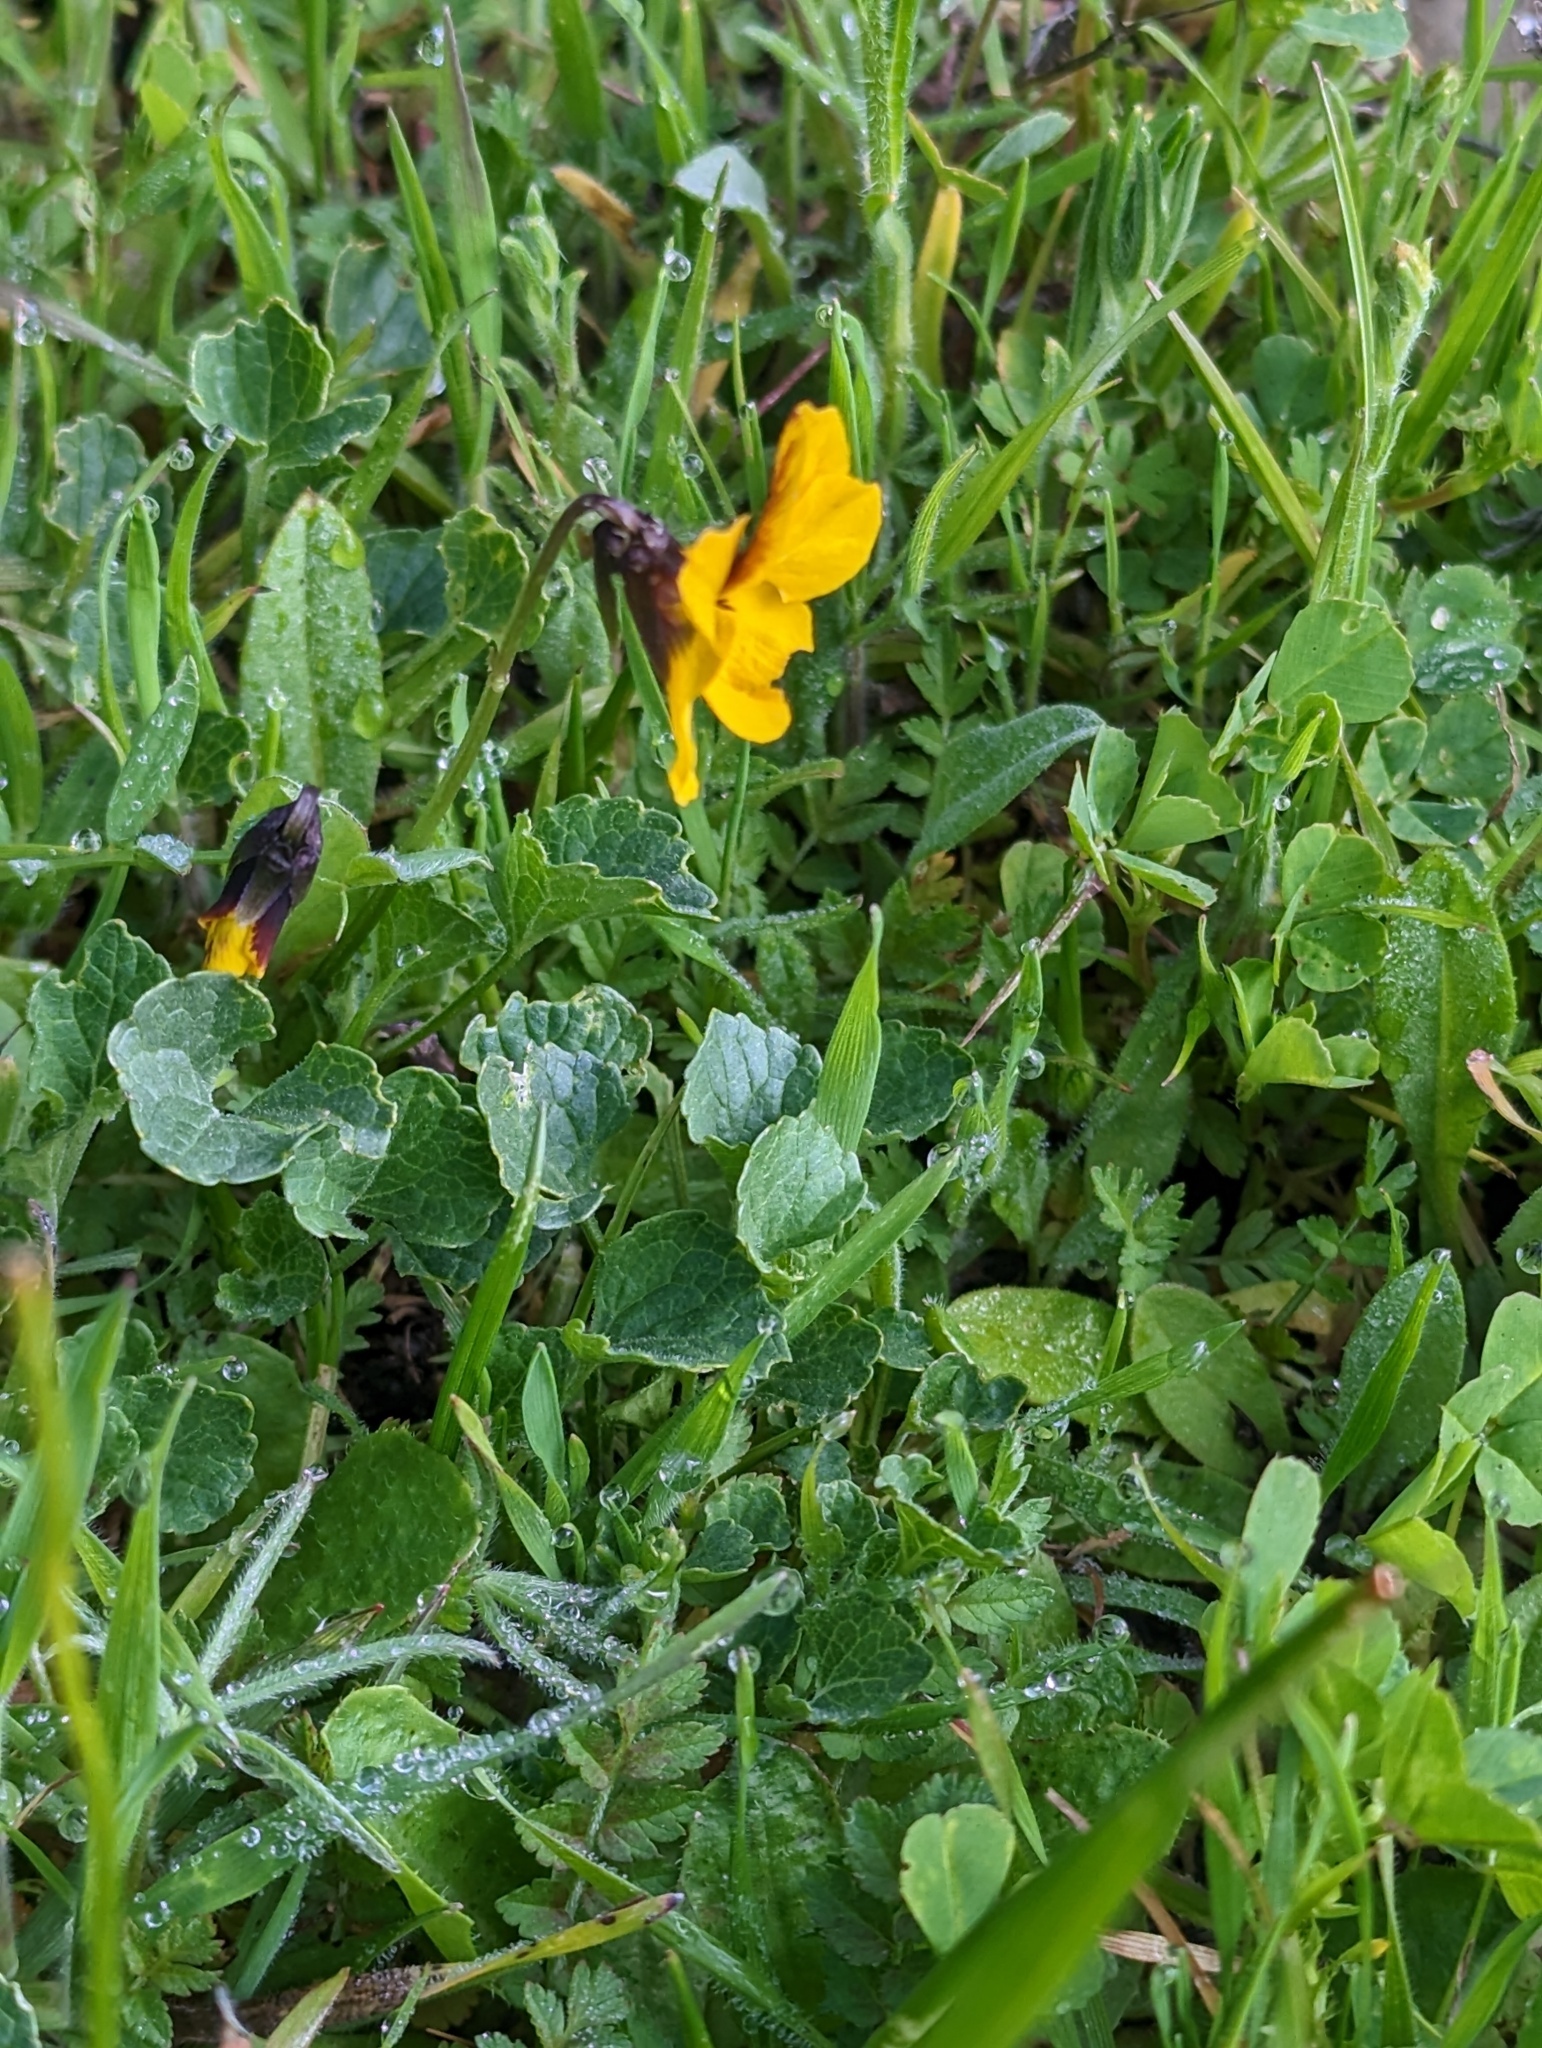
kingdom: Plantae
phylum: Tracheophyta
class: Magnoliopsida
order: Malpighiales
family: Violaceae
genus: Viola
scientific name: Viola pedunculata
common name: California golden violet
